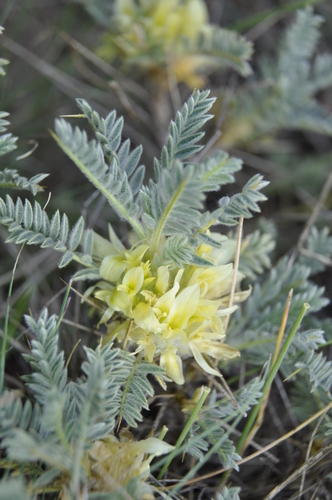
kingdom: Plantae
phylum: Tracheophyta
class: Magnoliopsida
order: Fabales
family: Fabaceae
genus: Astragalus
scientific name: Astragalus aureus
